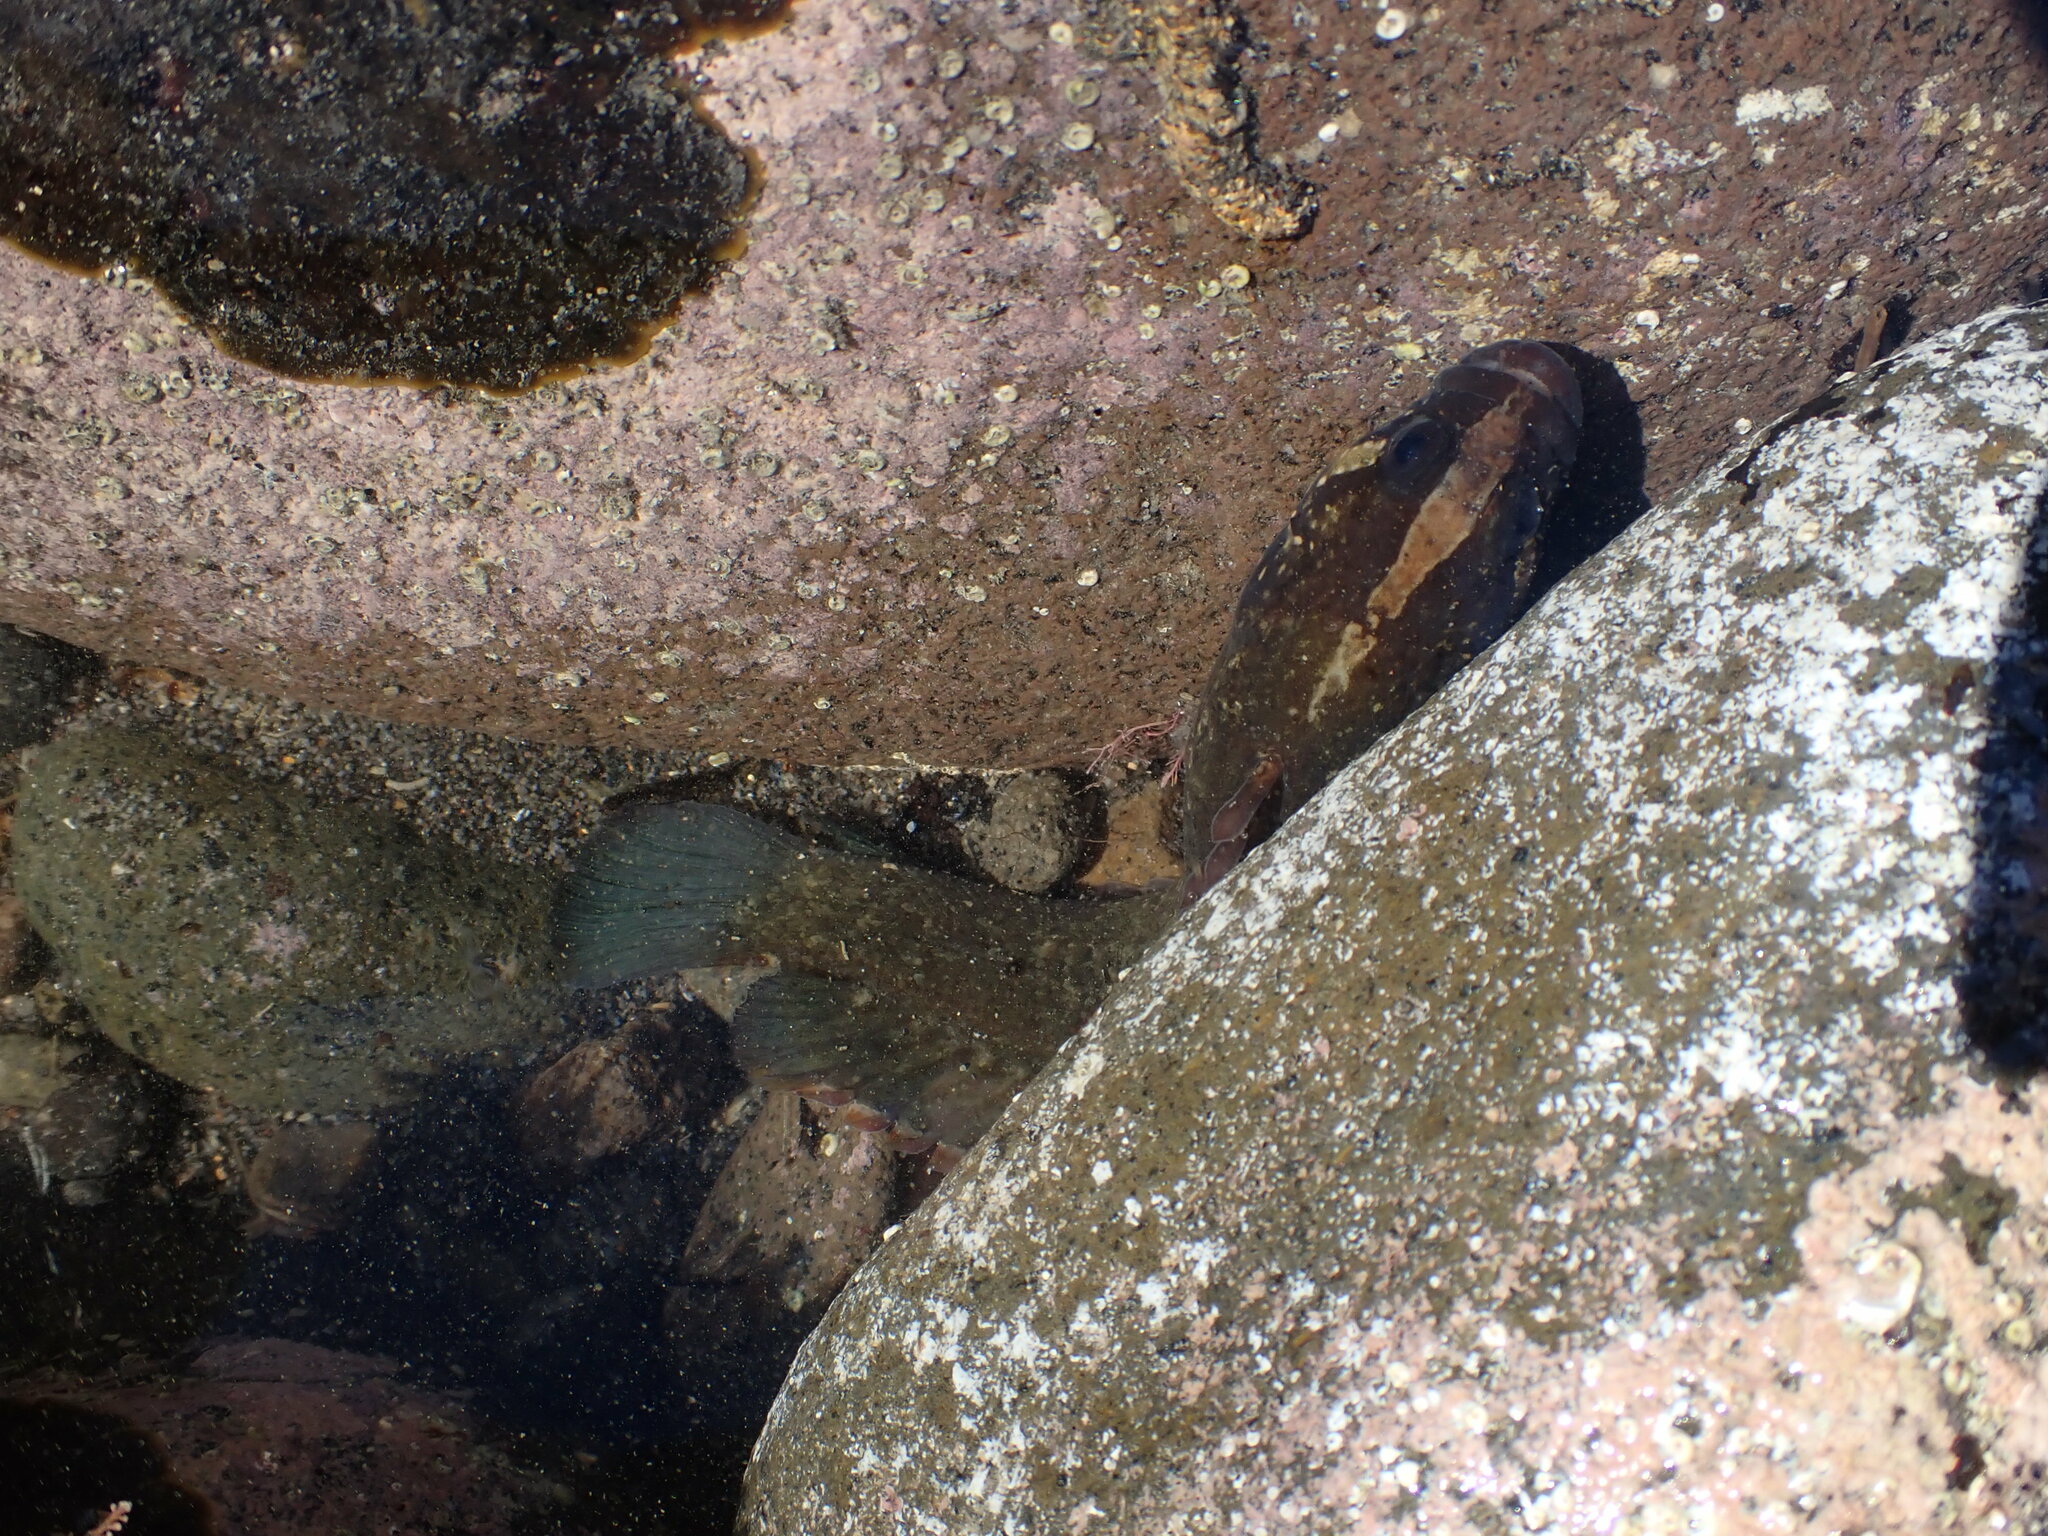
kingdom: Animalia
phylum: Chordata
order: Perciformes
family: Plesiopidae
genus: Acanthoclinus
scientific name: Acanthoclinus fuscus
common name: Olive rockfish
